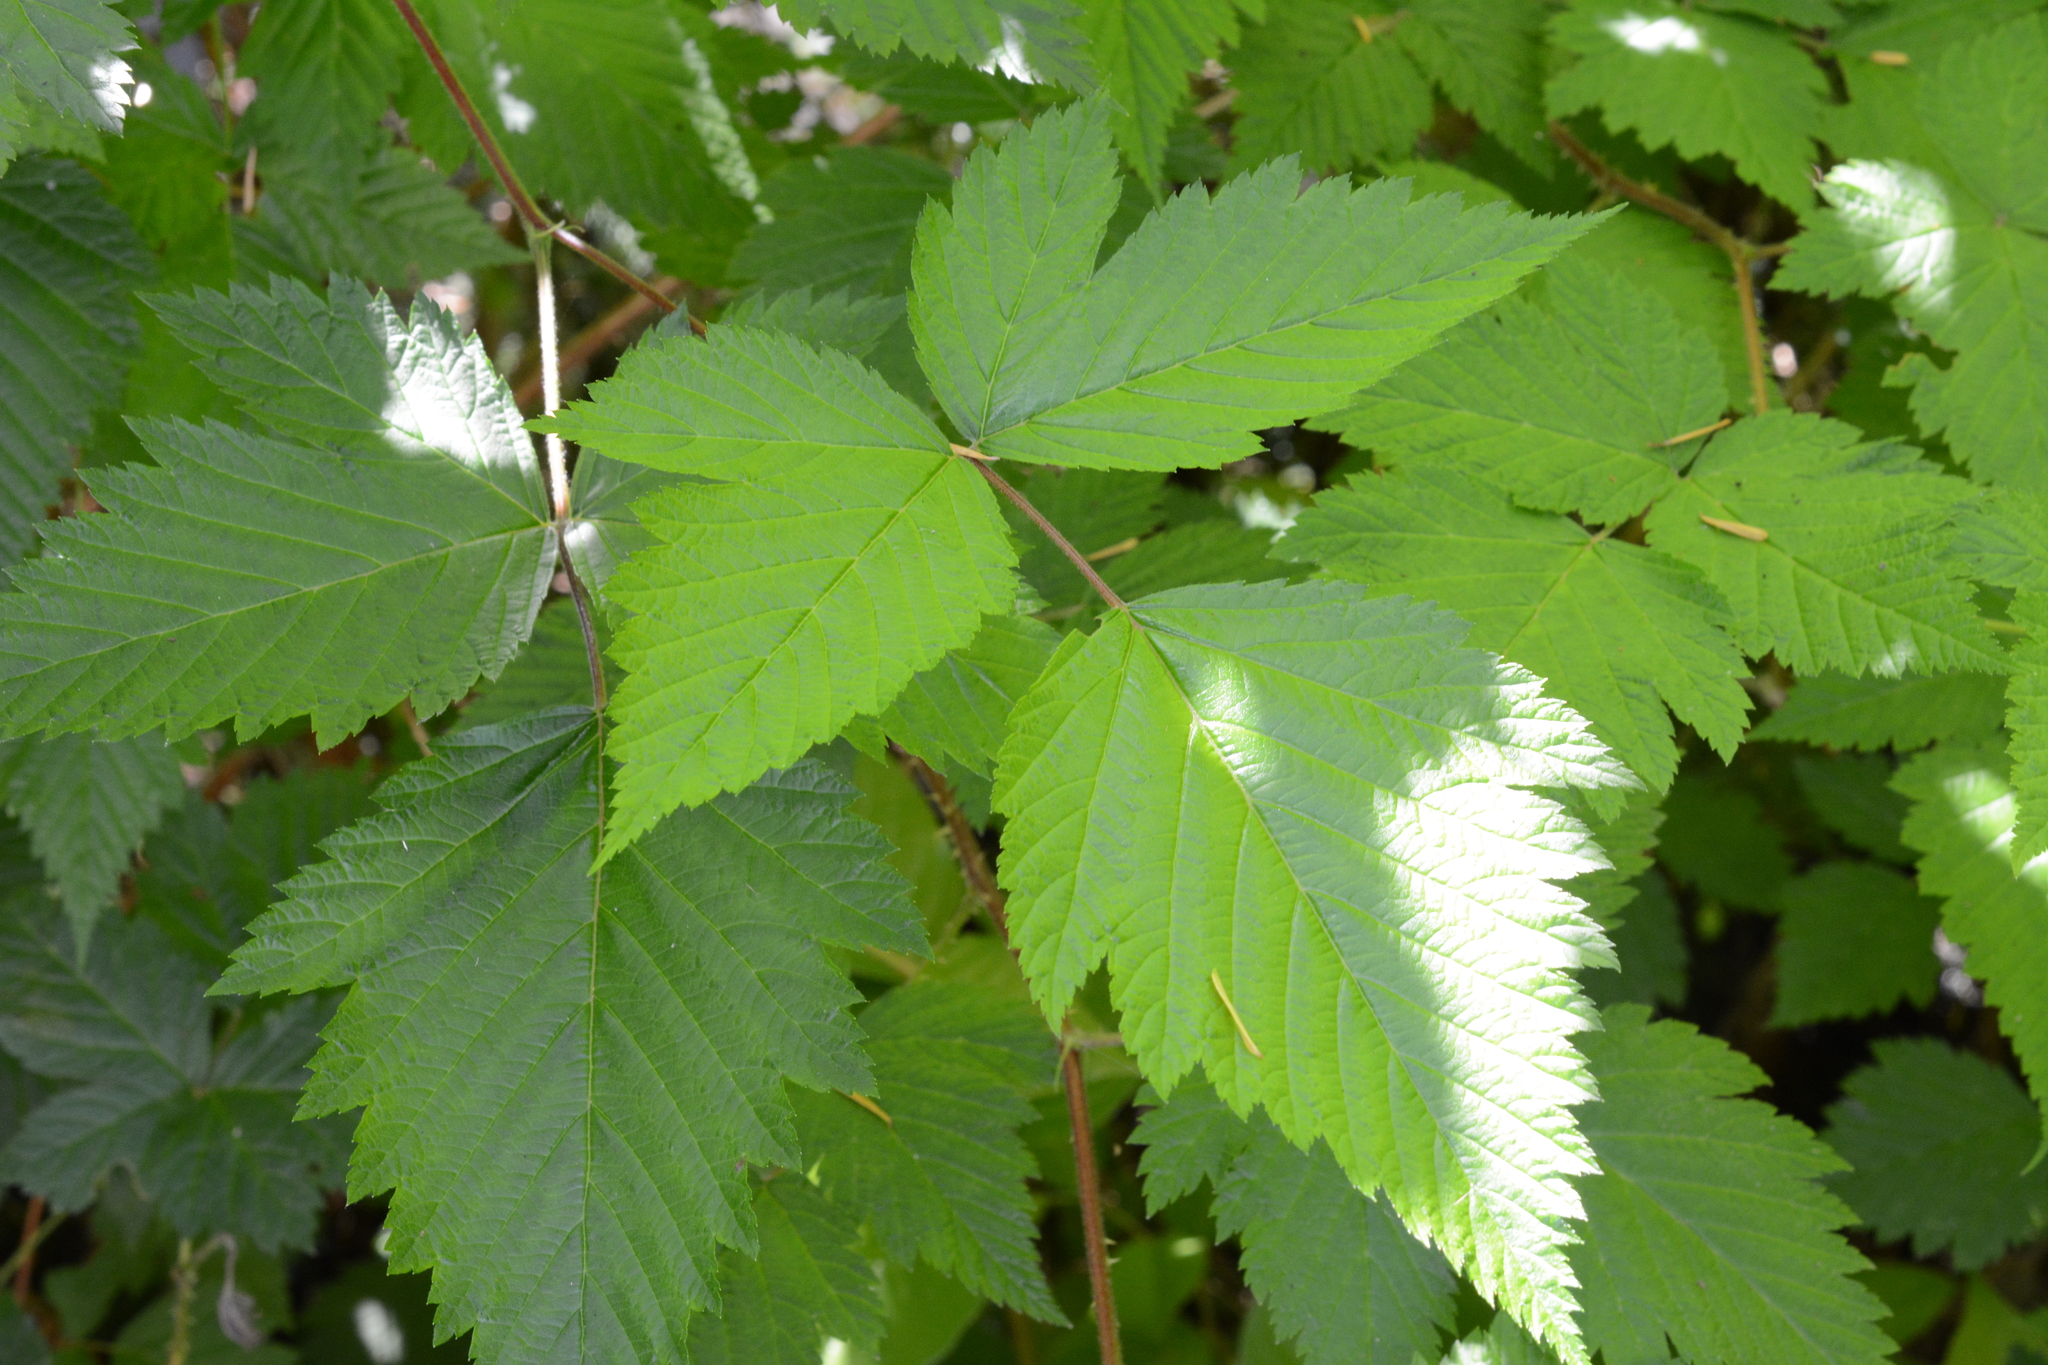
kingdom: Plantae
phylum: Tracheophyta
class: Magnoliopsida
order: Rosales
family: Rosaceae
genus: Rubus
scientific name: Rubus spectabilis
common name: Salmonberry
